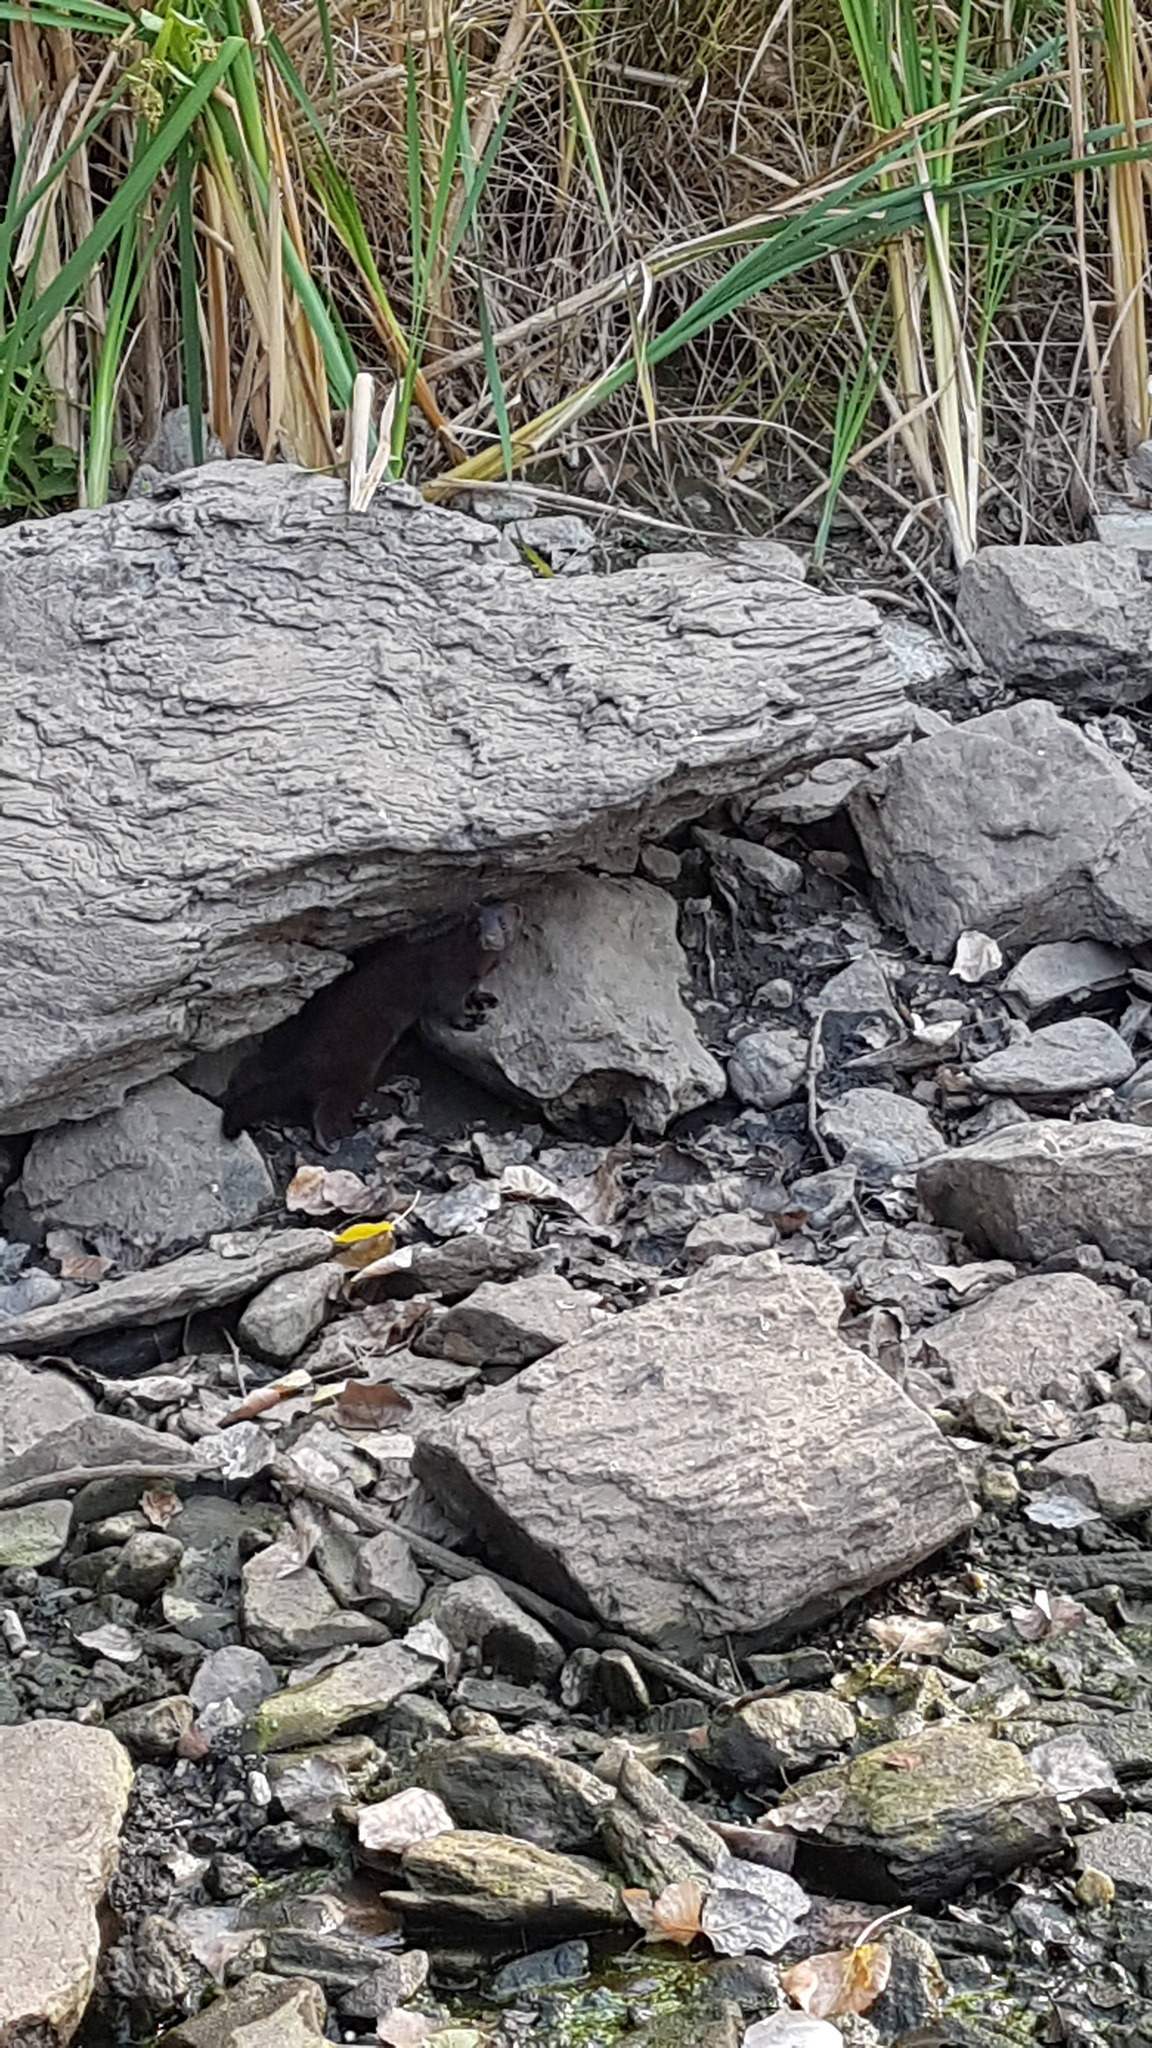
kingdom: Animalia
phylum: Chordata
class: Mammalia
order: Carnivora
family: Mustelidae
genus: Mustela
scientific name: Mustela
